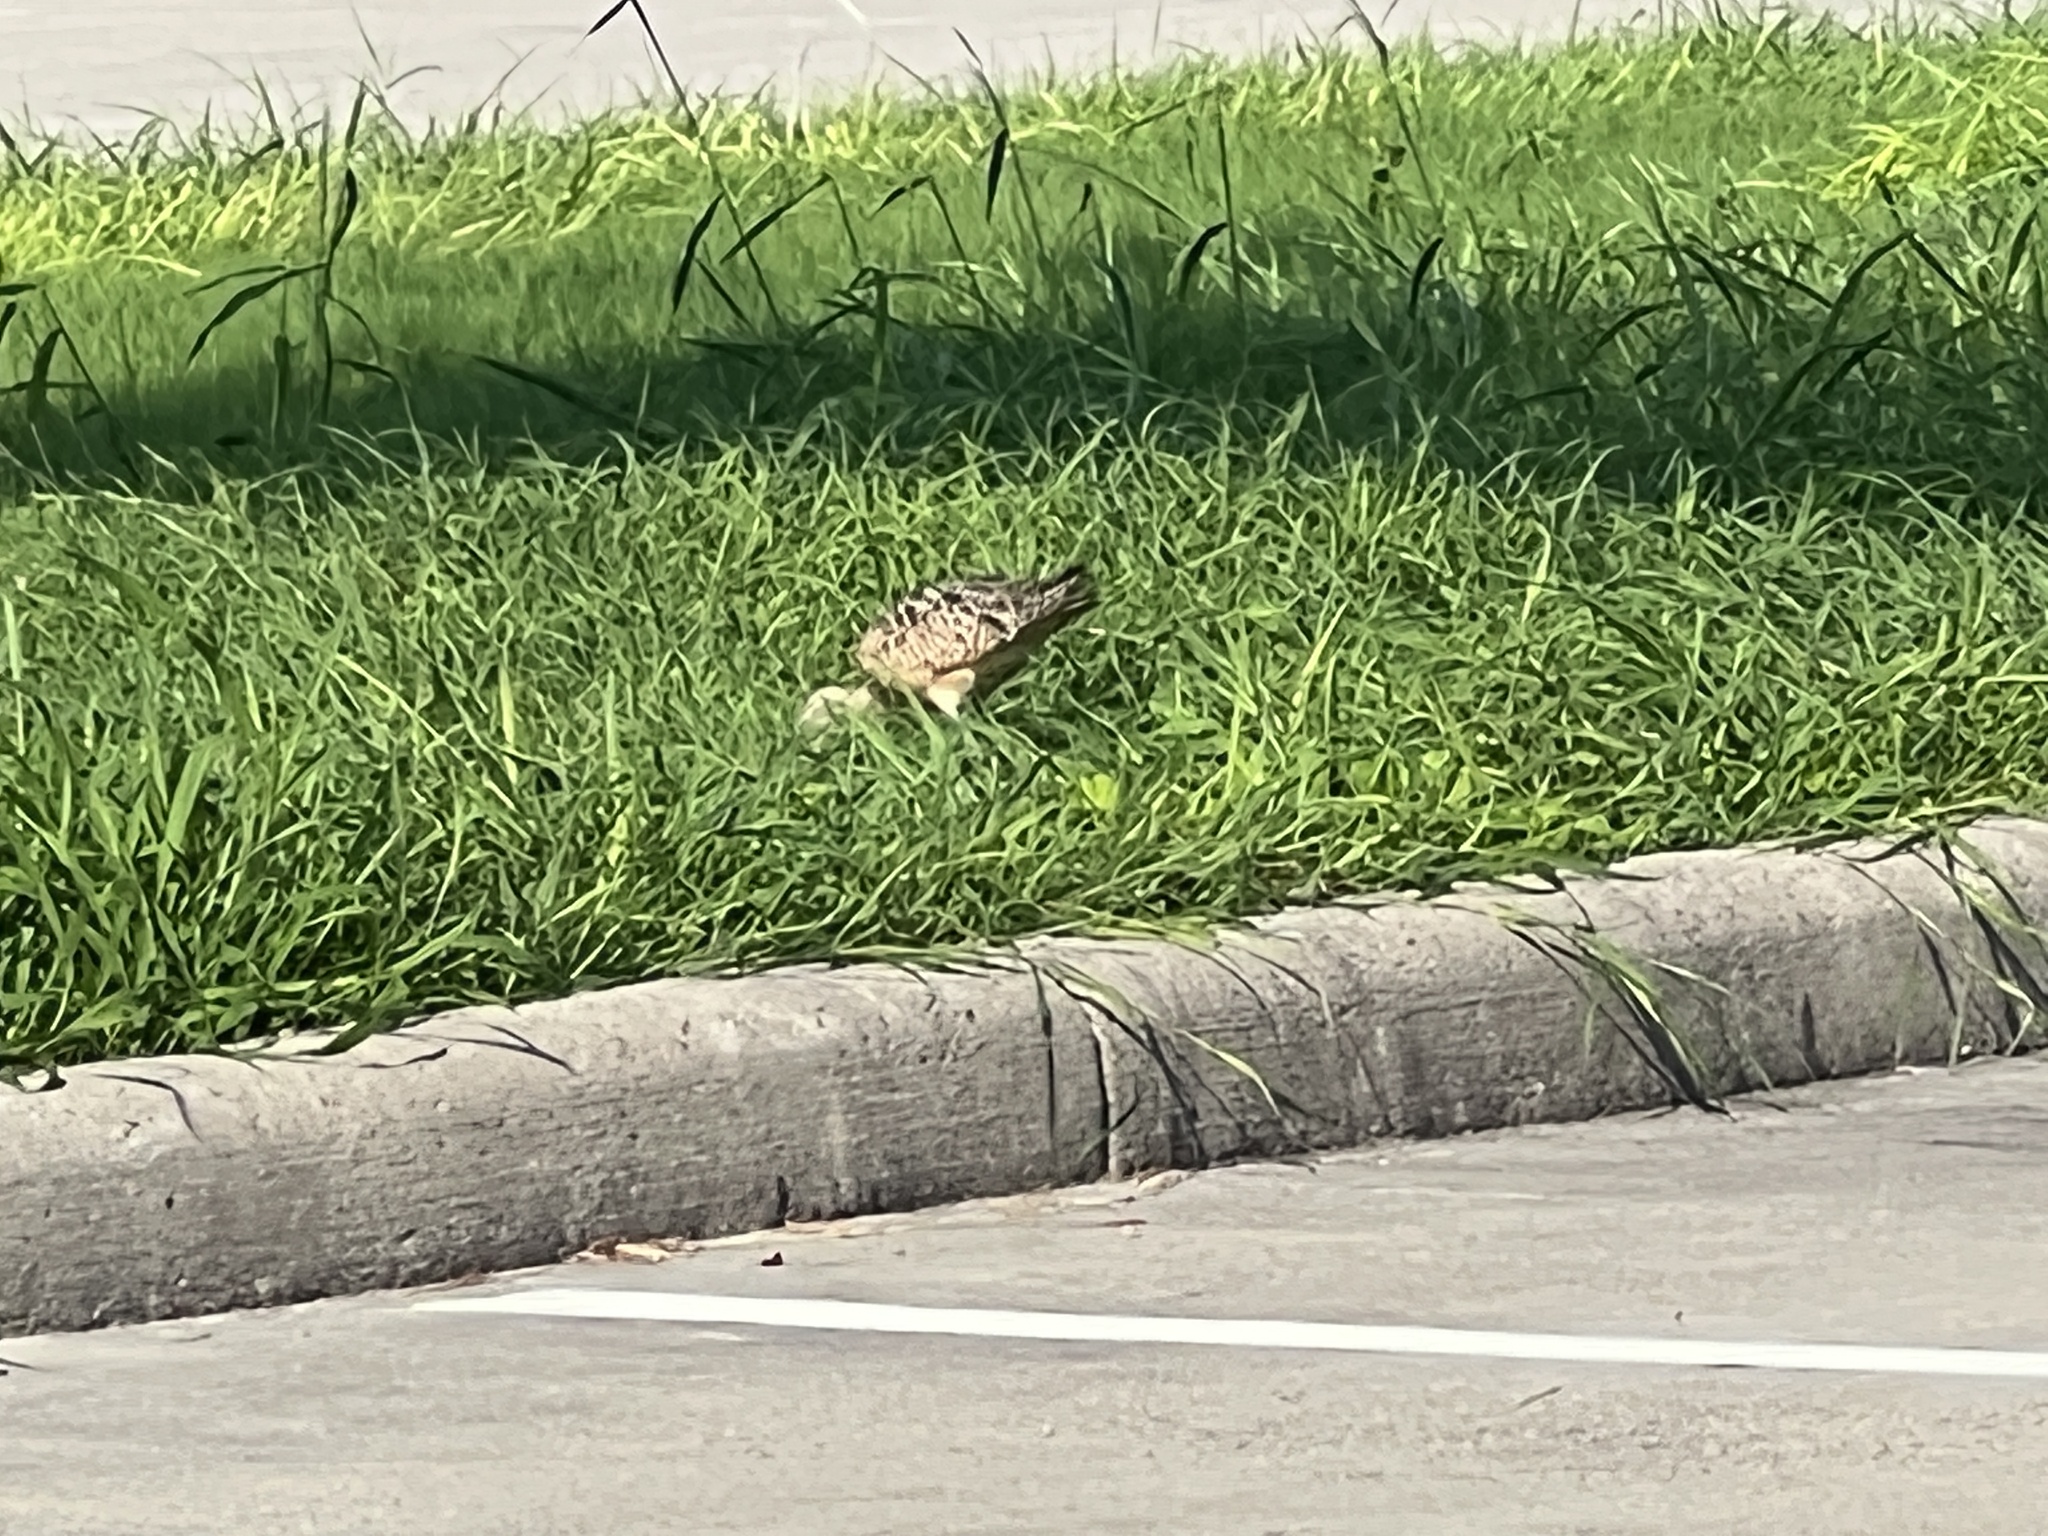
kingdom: Animalia
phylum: Chordata
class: Aves
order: Charadriiformes
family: Scolopacidae
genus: Numenius
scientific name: Numenius americanus
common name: Long-billed curlew
